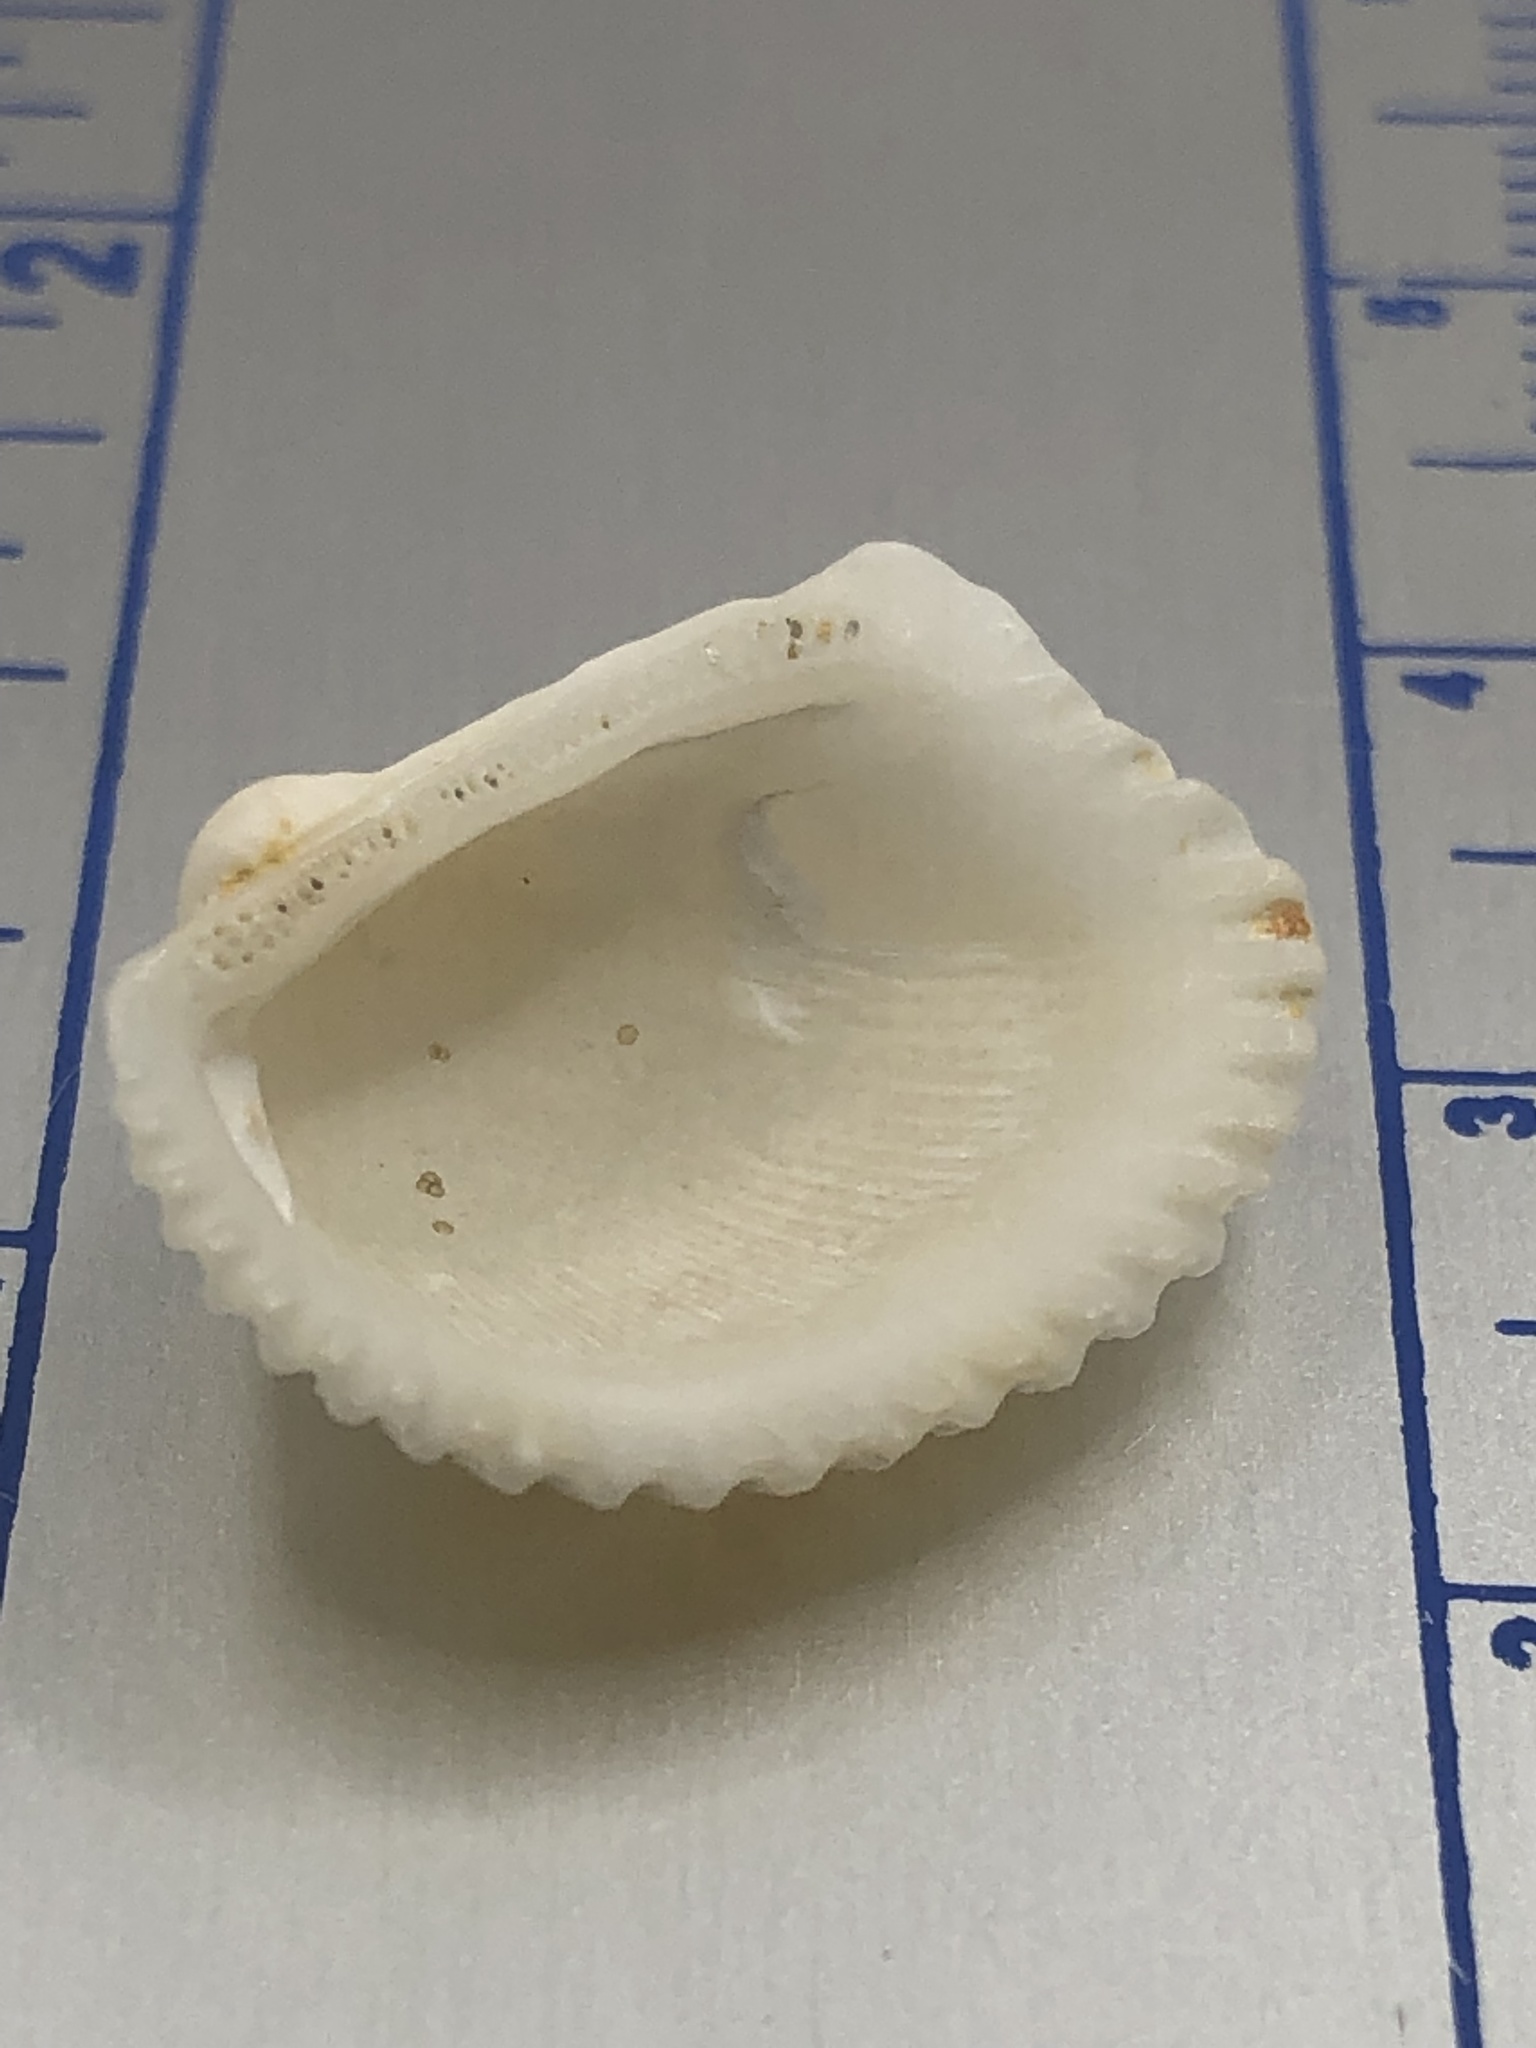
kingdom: Animalia
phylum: Mollusca
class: Bivalvia
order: Arcida
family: Arcidae
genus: Anadara
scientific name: Anadara transversa
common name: Transverse ark
